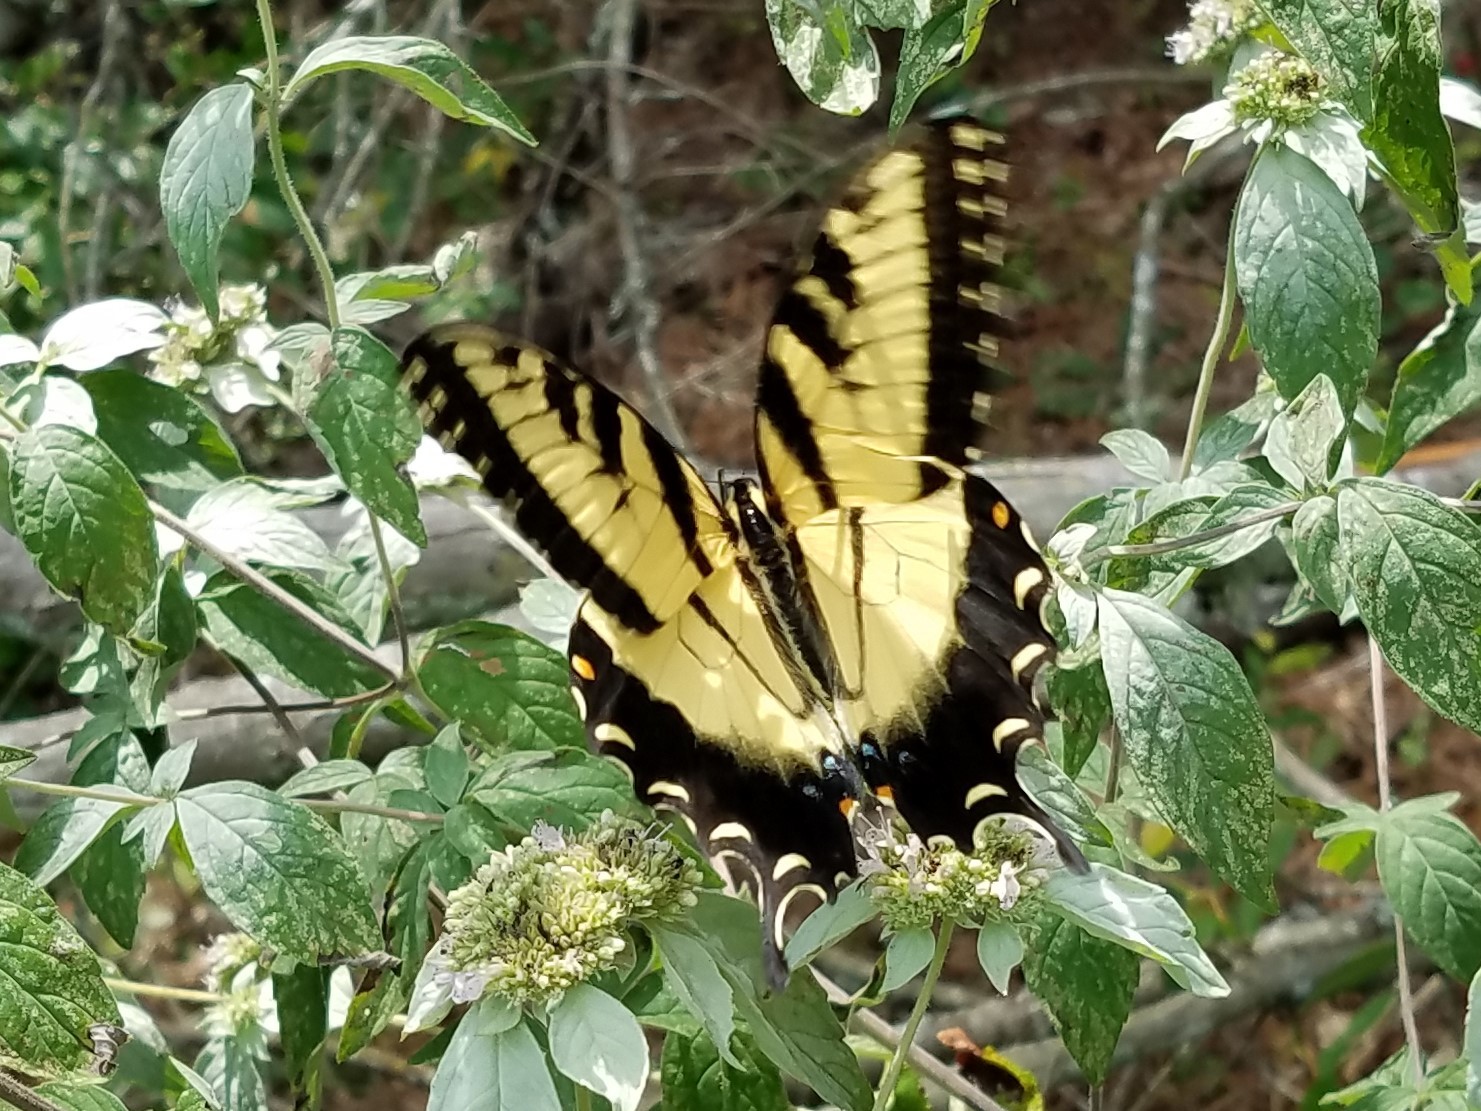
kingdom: Animalia
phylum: Arthropoda
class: Insecta
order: Lepidoptera
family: Papilionidae
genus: Papilio
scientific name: Papilio glaucus
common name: Tiger swallowtail
